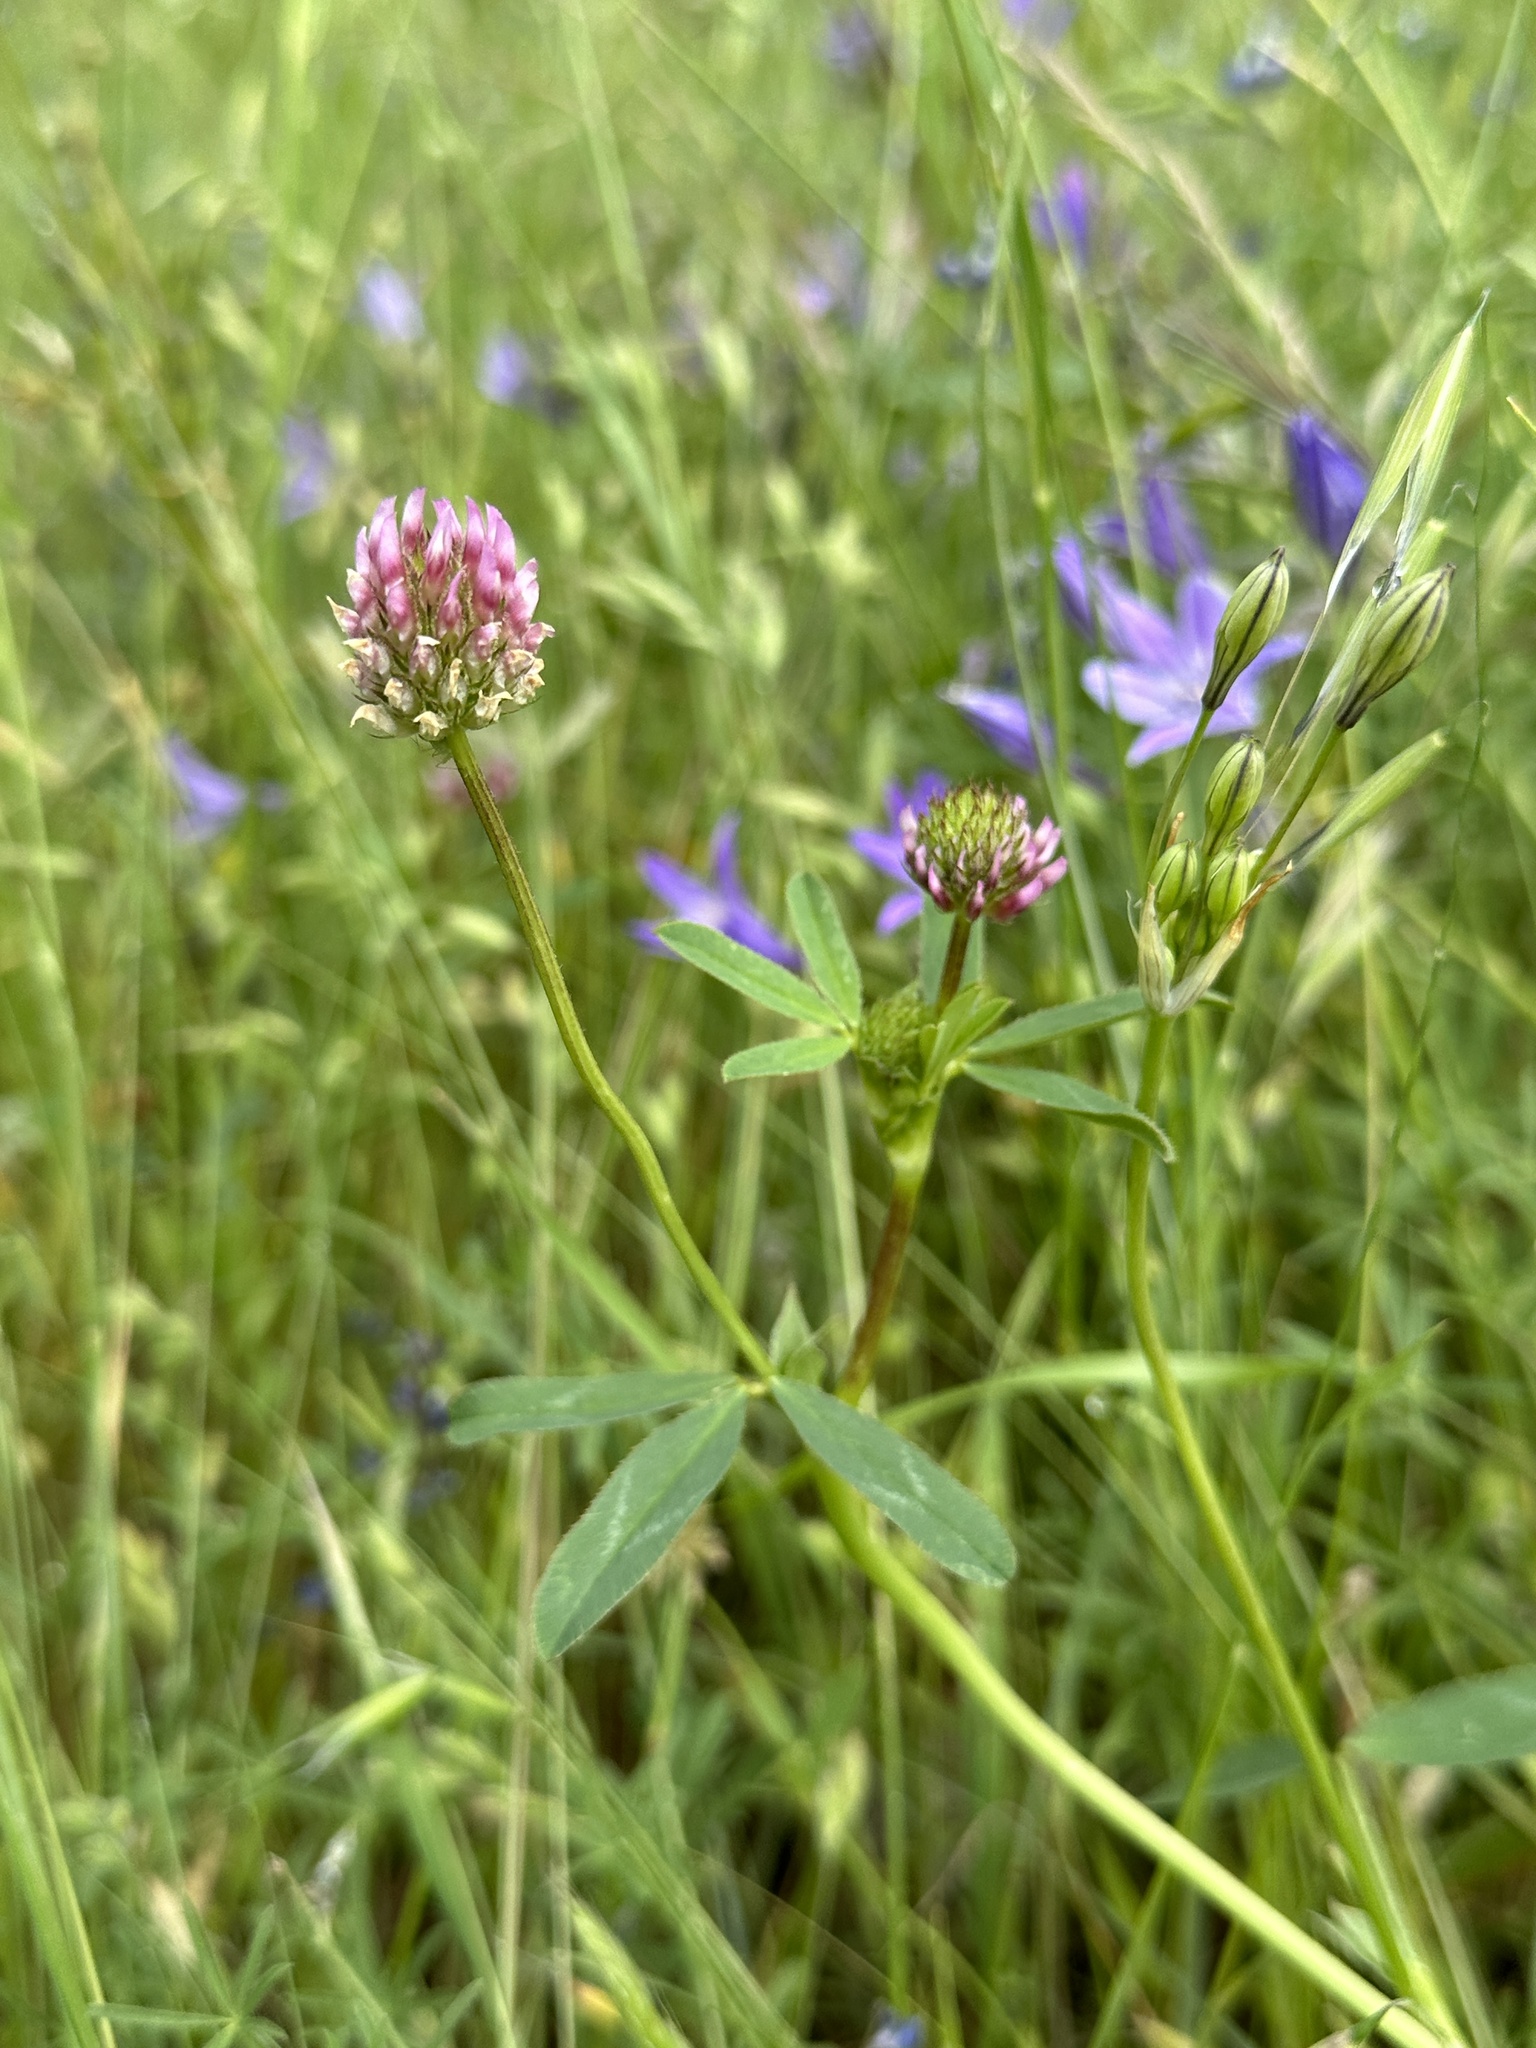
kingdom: Plantae
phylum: Tracheophyta
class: Magnoliopsida
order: Fabales
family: Fabaceae
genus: Trifolium
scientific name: Trifolium ciliolatum
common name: Foothill clover
